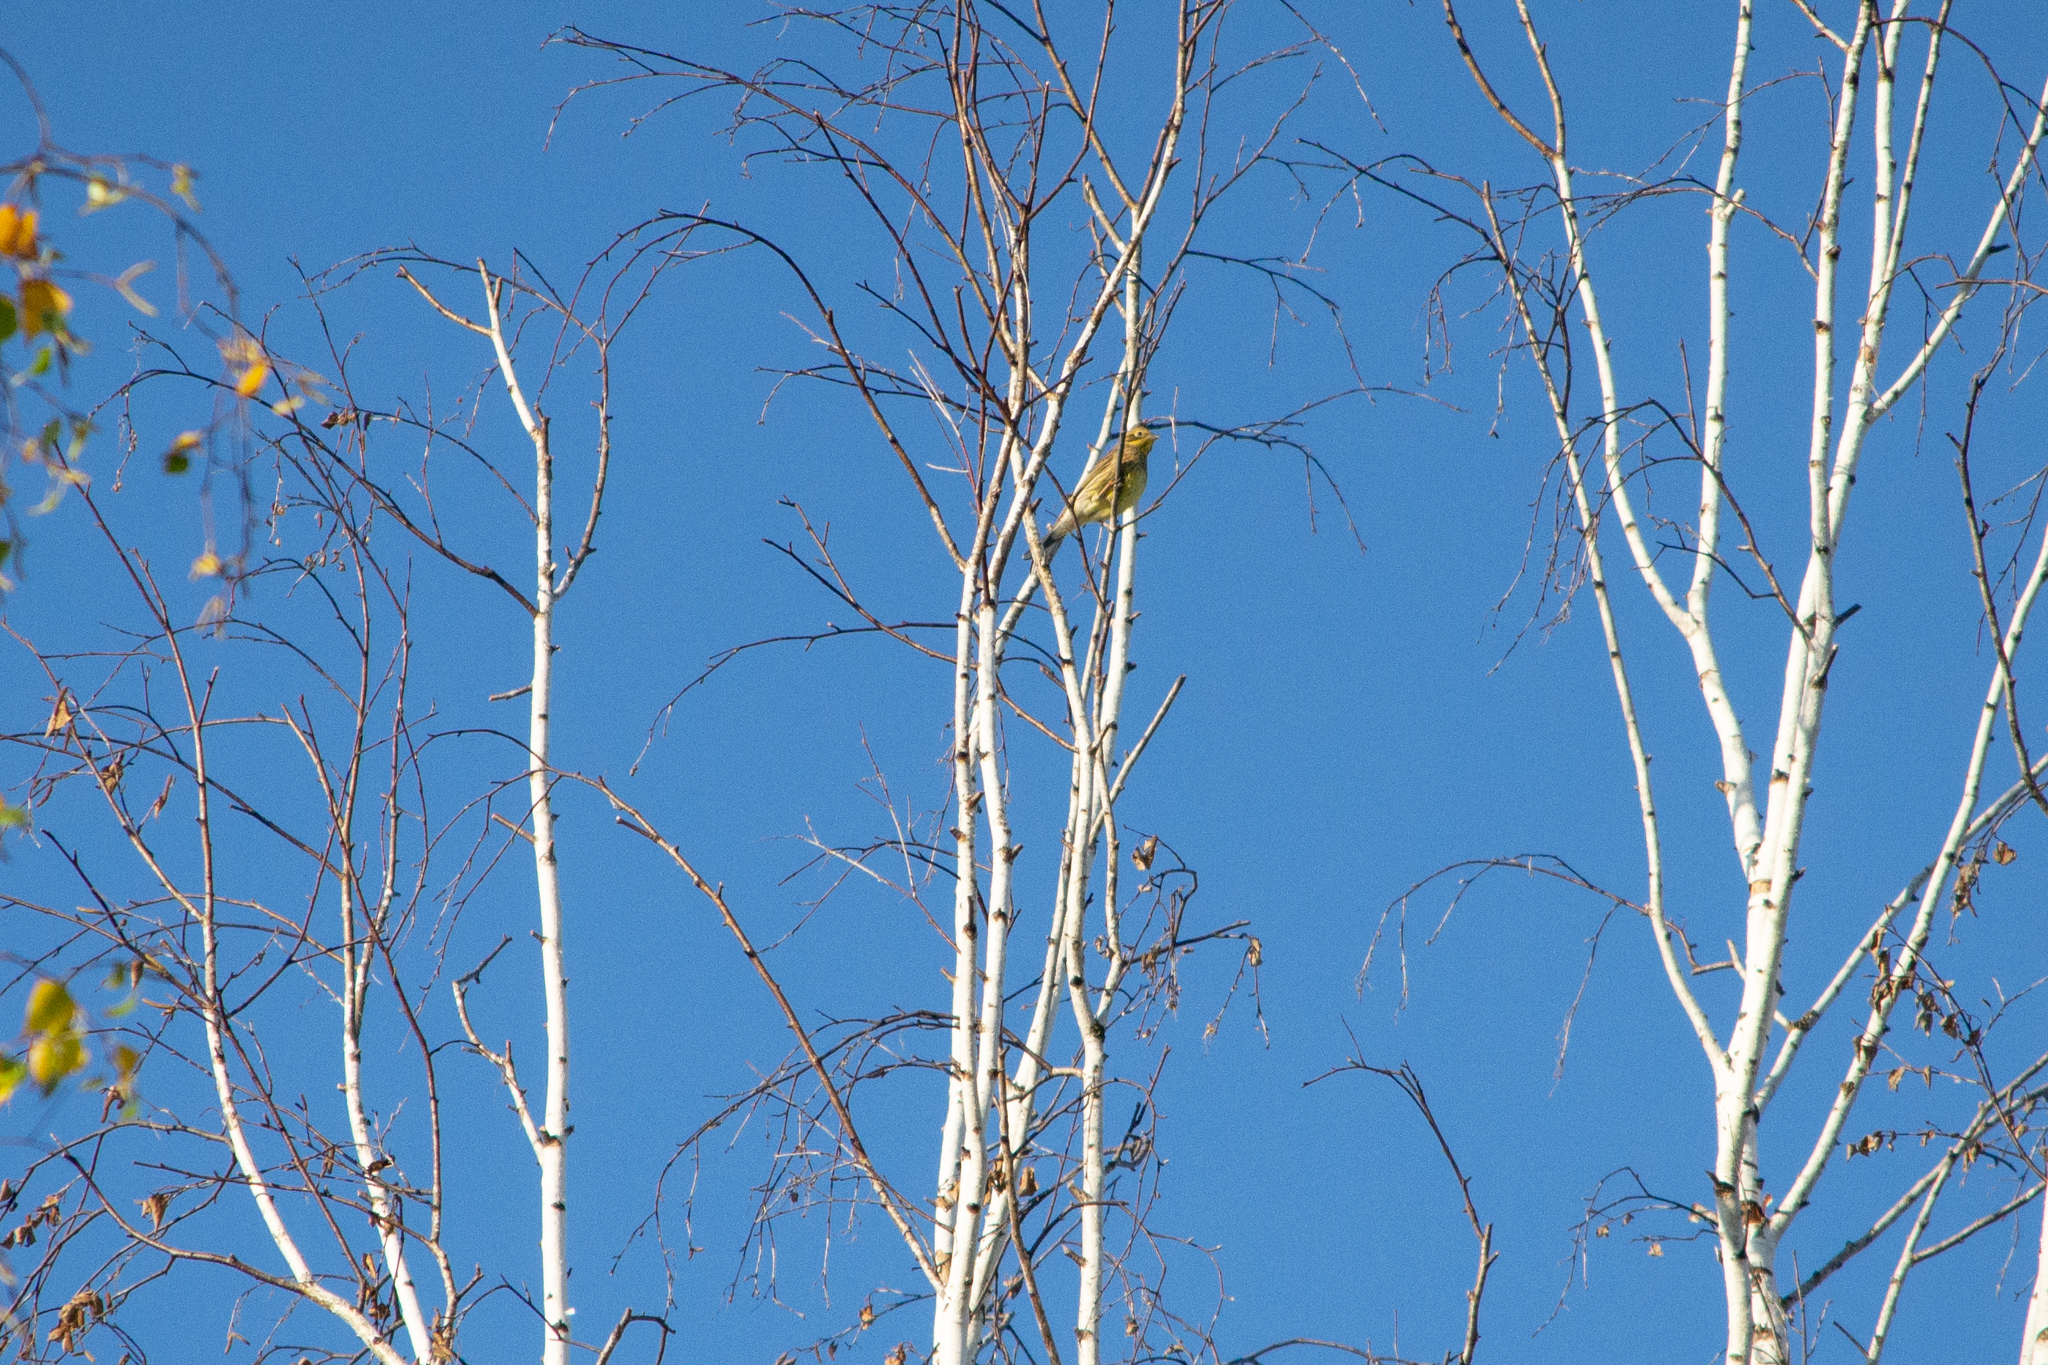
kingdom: Animalia
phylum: Chordata
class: Aves
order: Passeriformes
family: Emberizidae
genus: Emberiza
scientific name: Emberiza citrinella
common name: Yellowhammer
